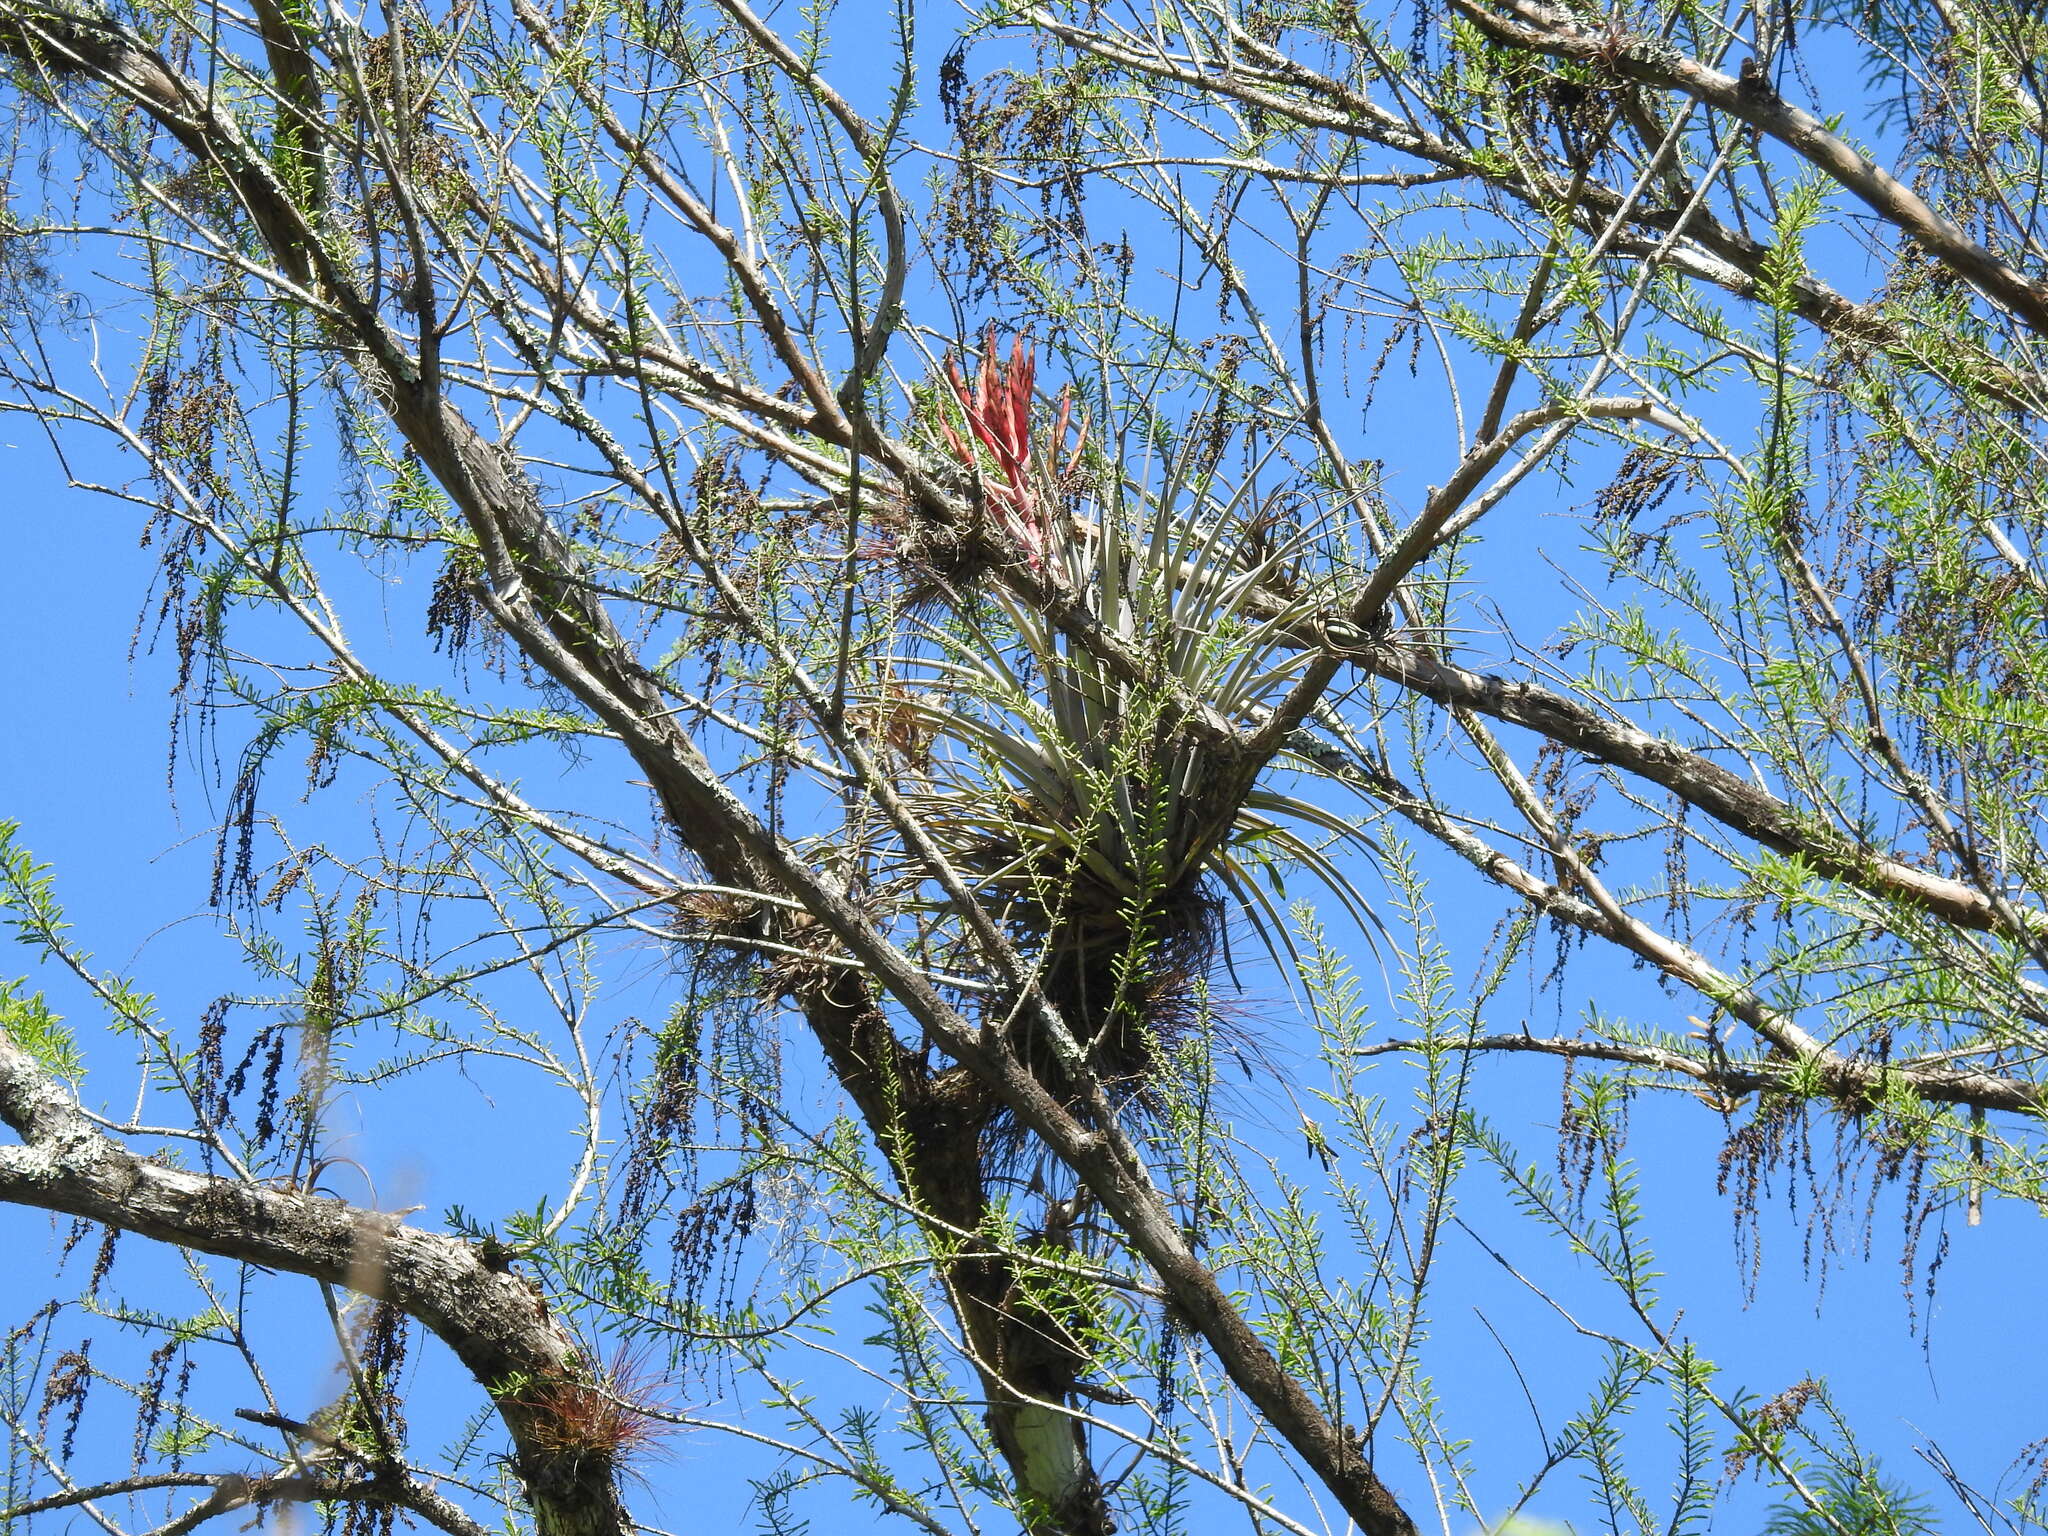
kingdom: Plantae
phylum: Tracheophyta
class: Liliopsida
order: Poales
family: Bromeliaceae
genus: Tillandsia
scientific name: Tillandsia fasciculata
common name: Giant airplant
